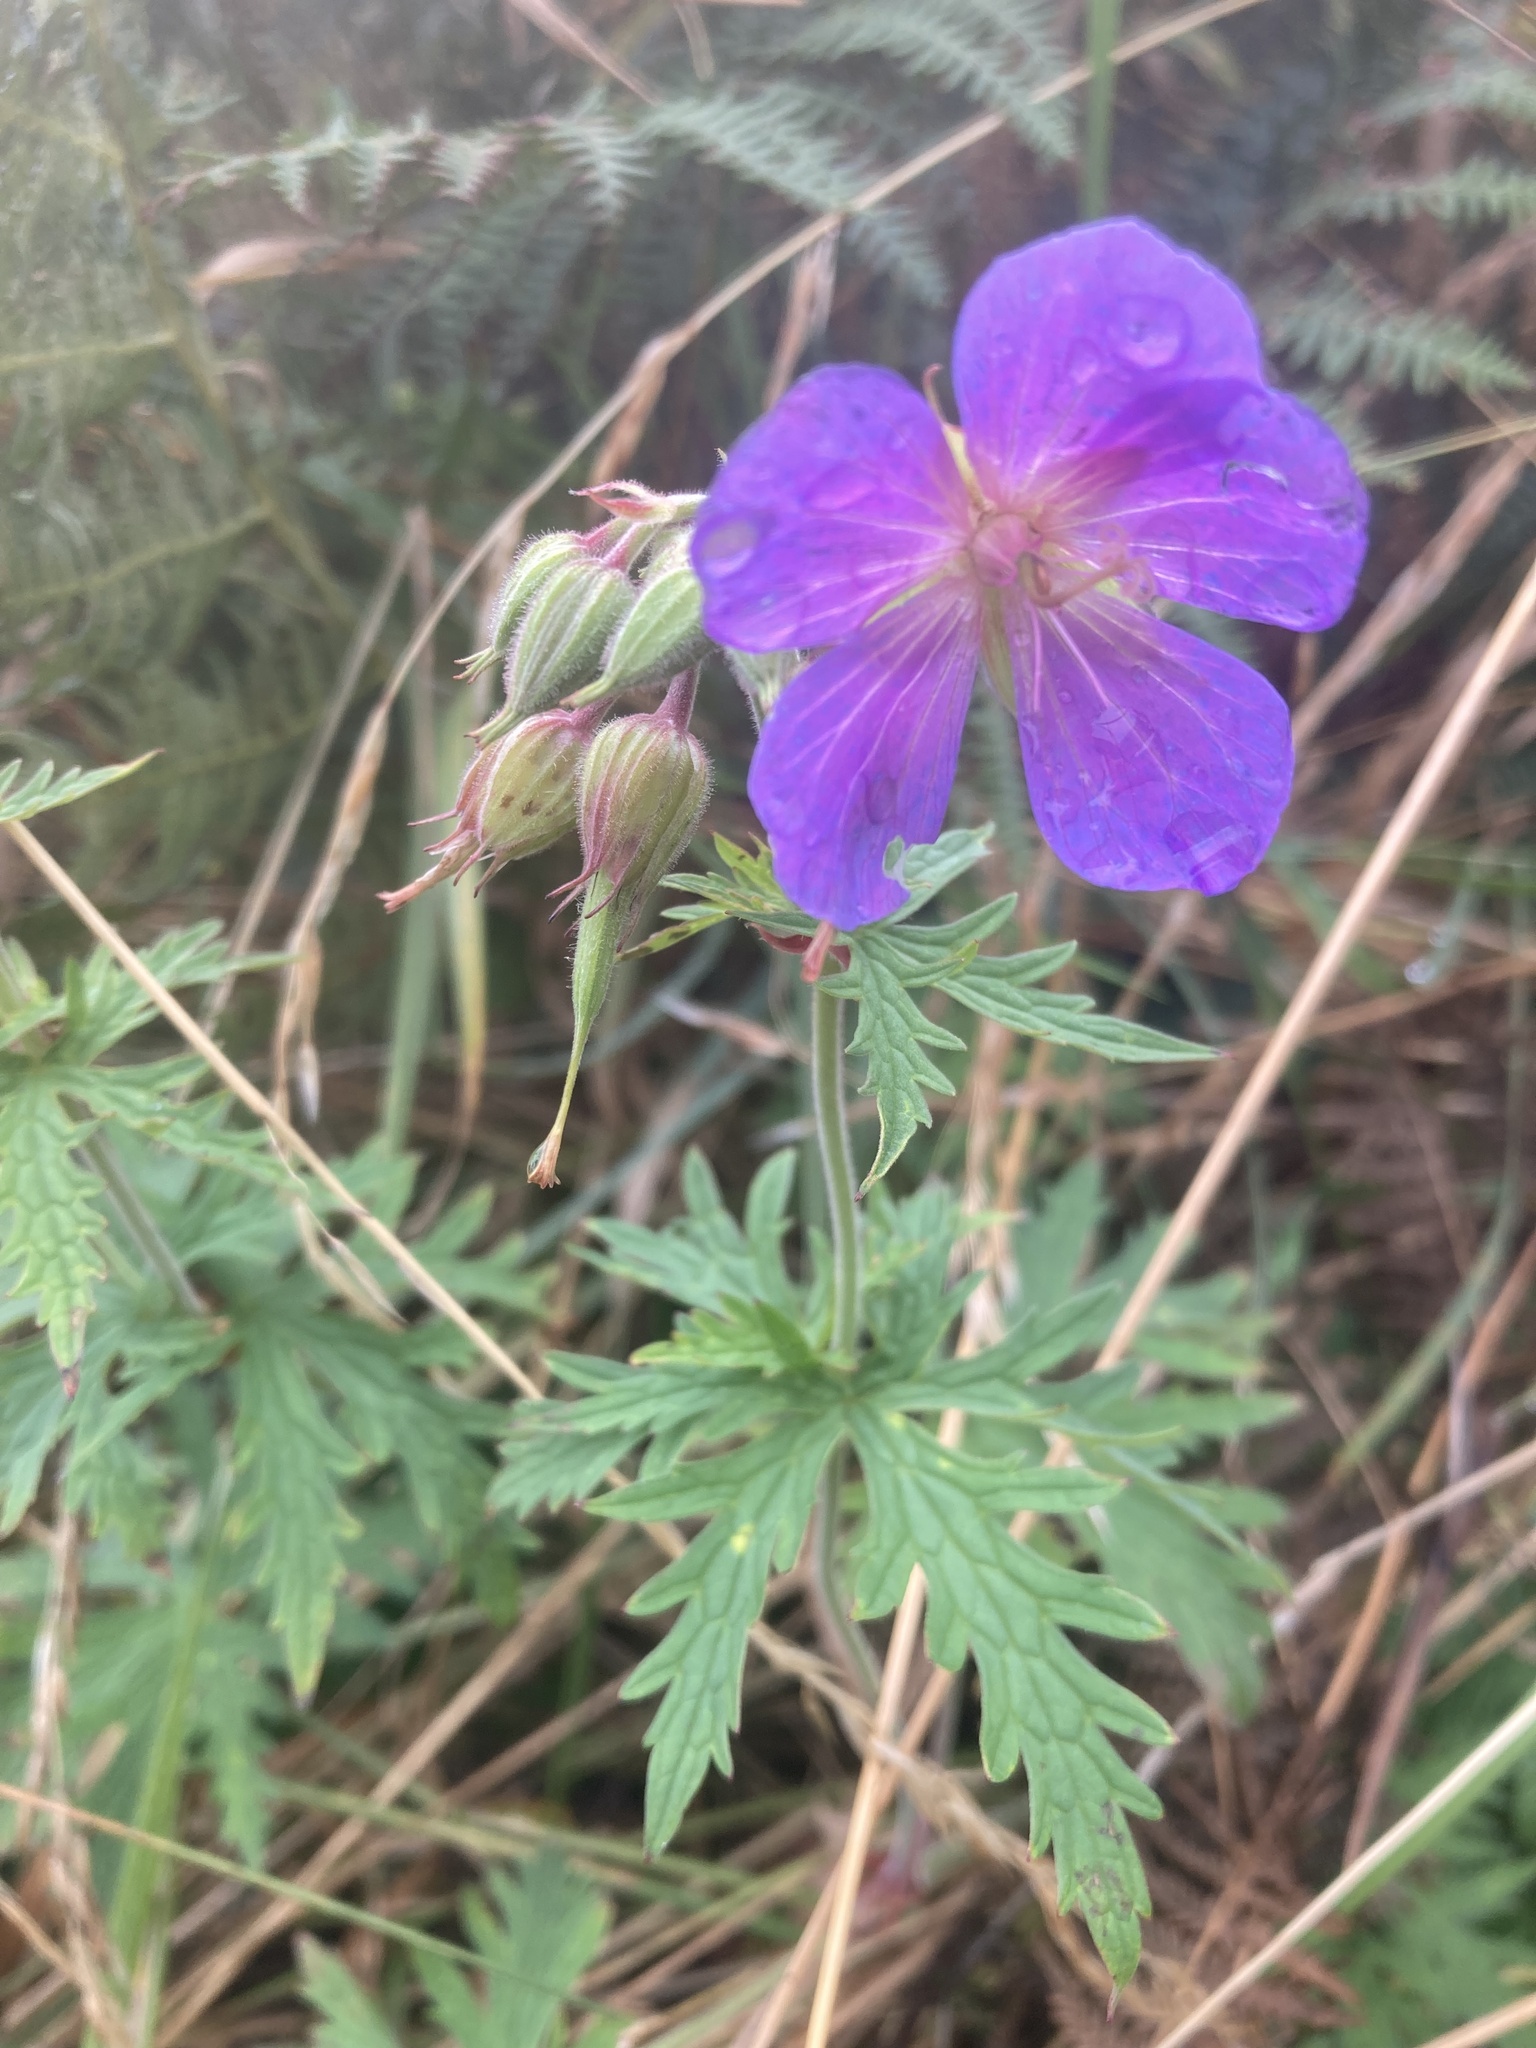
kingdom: Plantae
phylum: Tracheophyta
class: Magnoliopsida
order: Geraniales
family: Geraniaceae
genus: Geranium
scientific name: Geranium pratense
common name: Meadow crane's-bill
